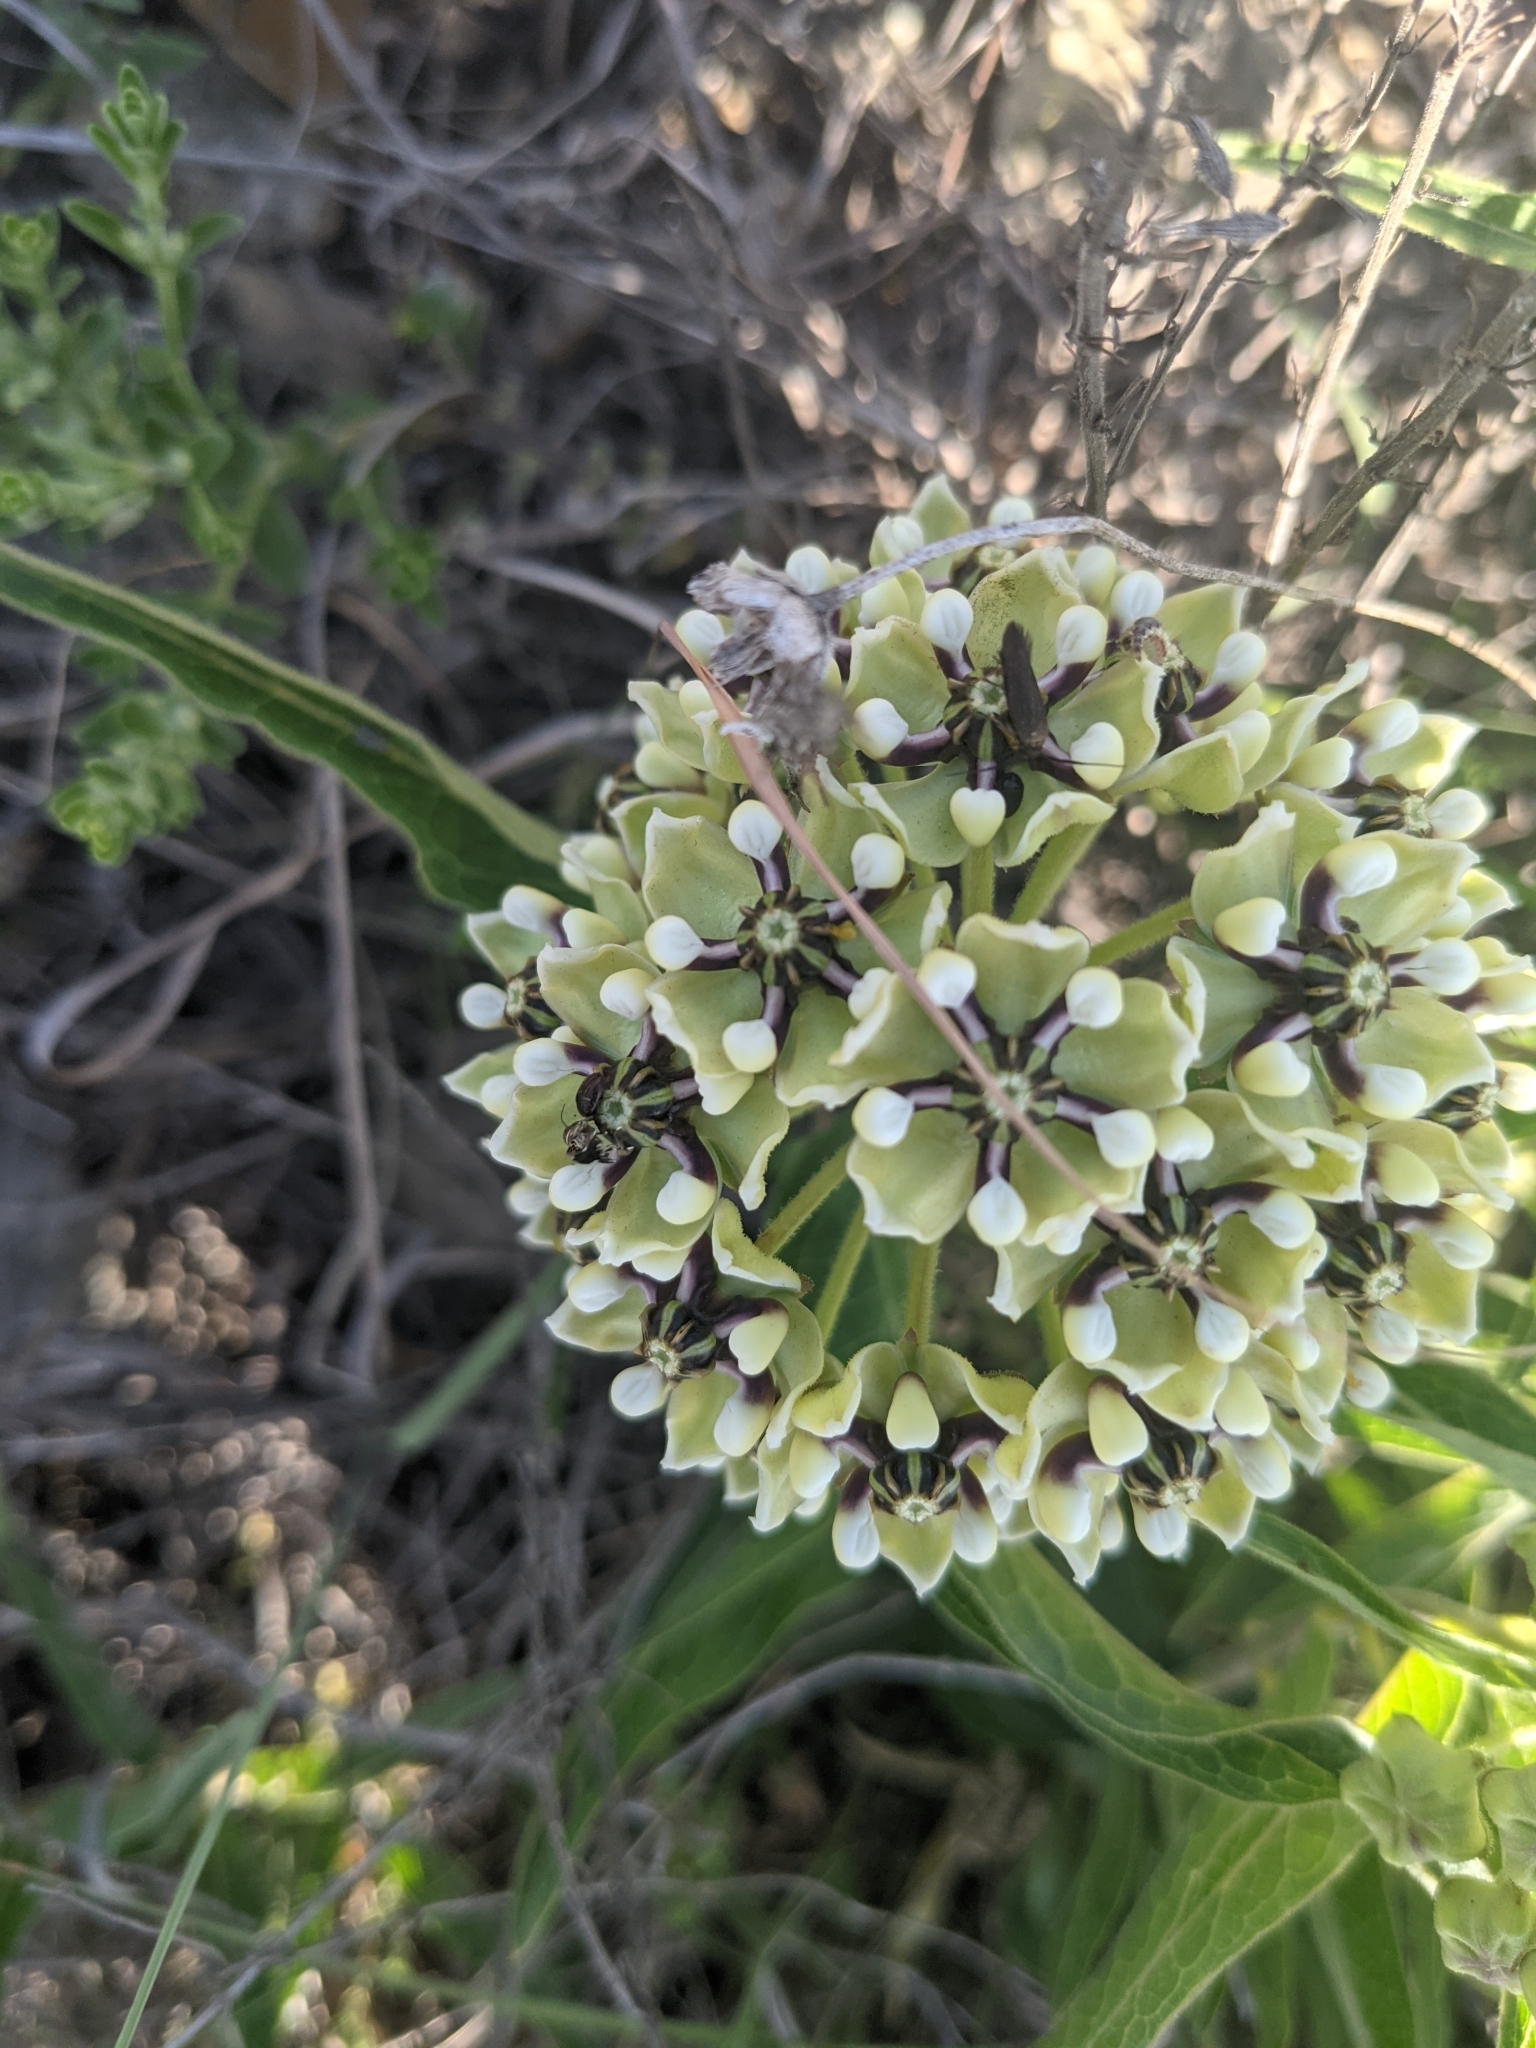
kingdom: Plantae
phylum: Tracheophyta
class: Magnoliopsida
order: Gentianales
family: Apocynaceae
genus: Asclepias
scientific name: Asclepias asperula
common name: Antelope horns
